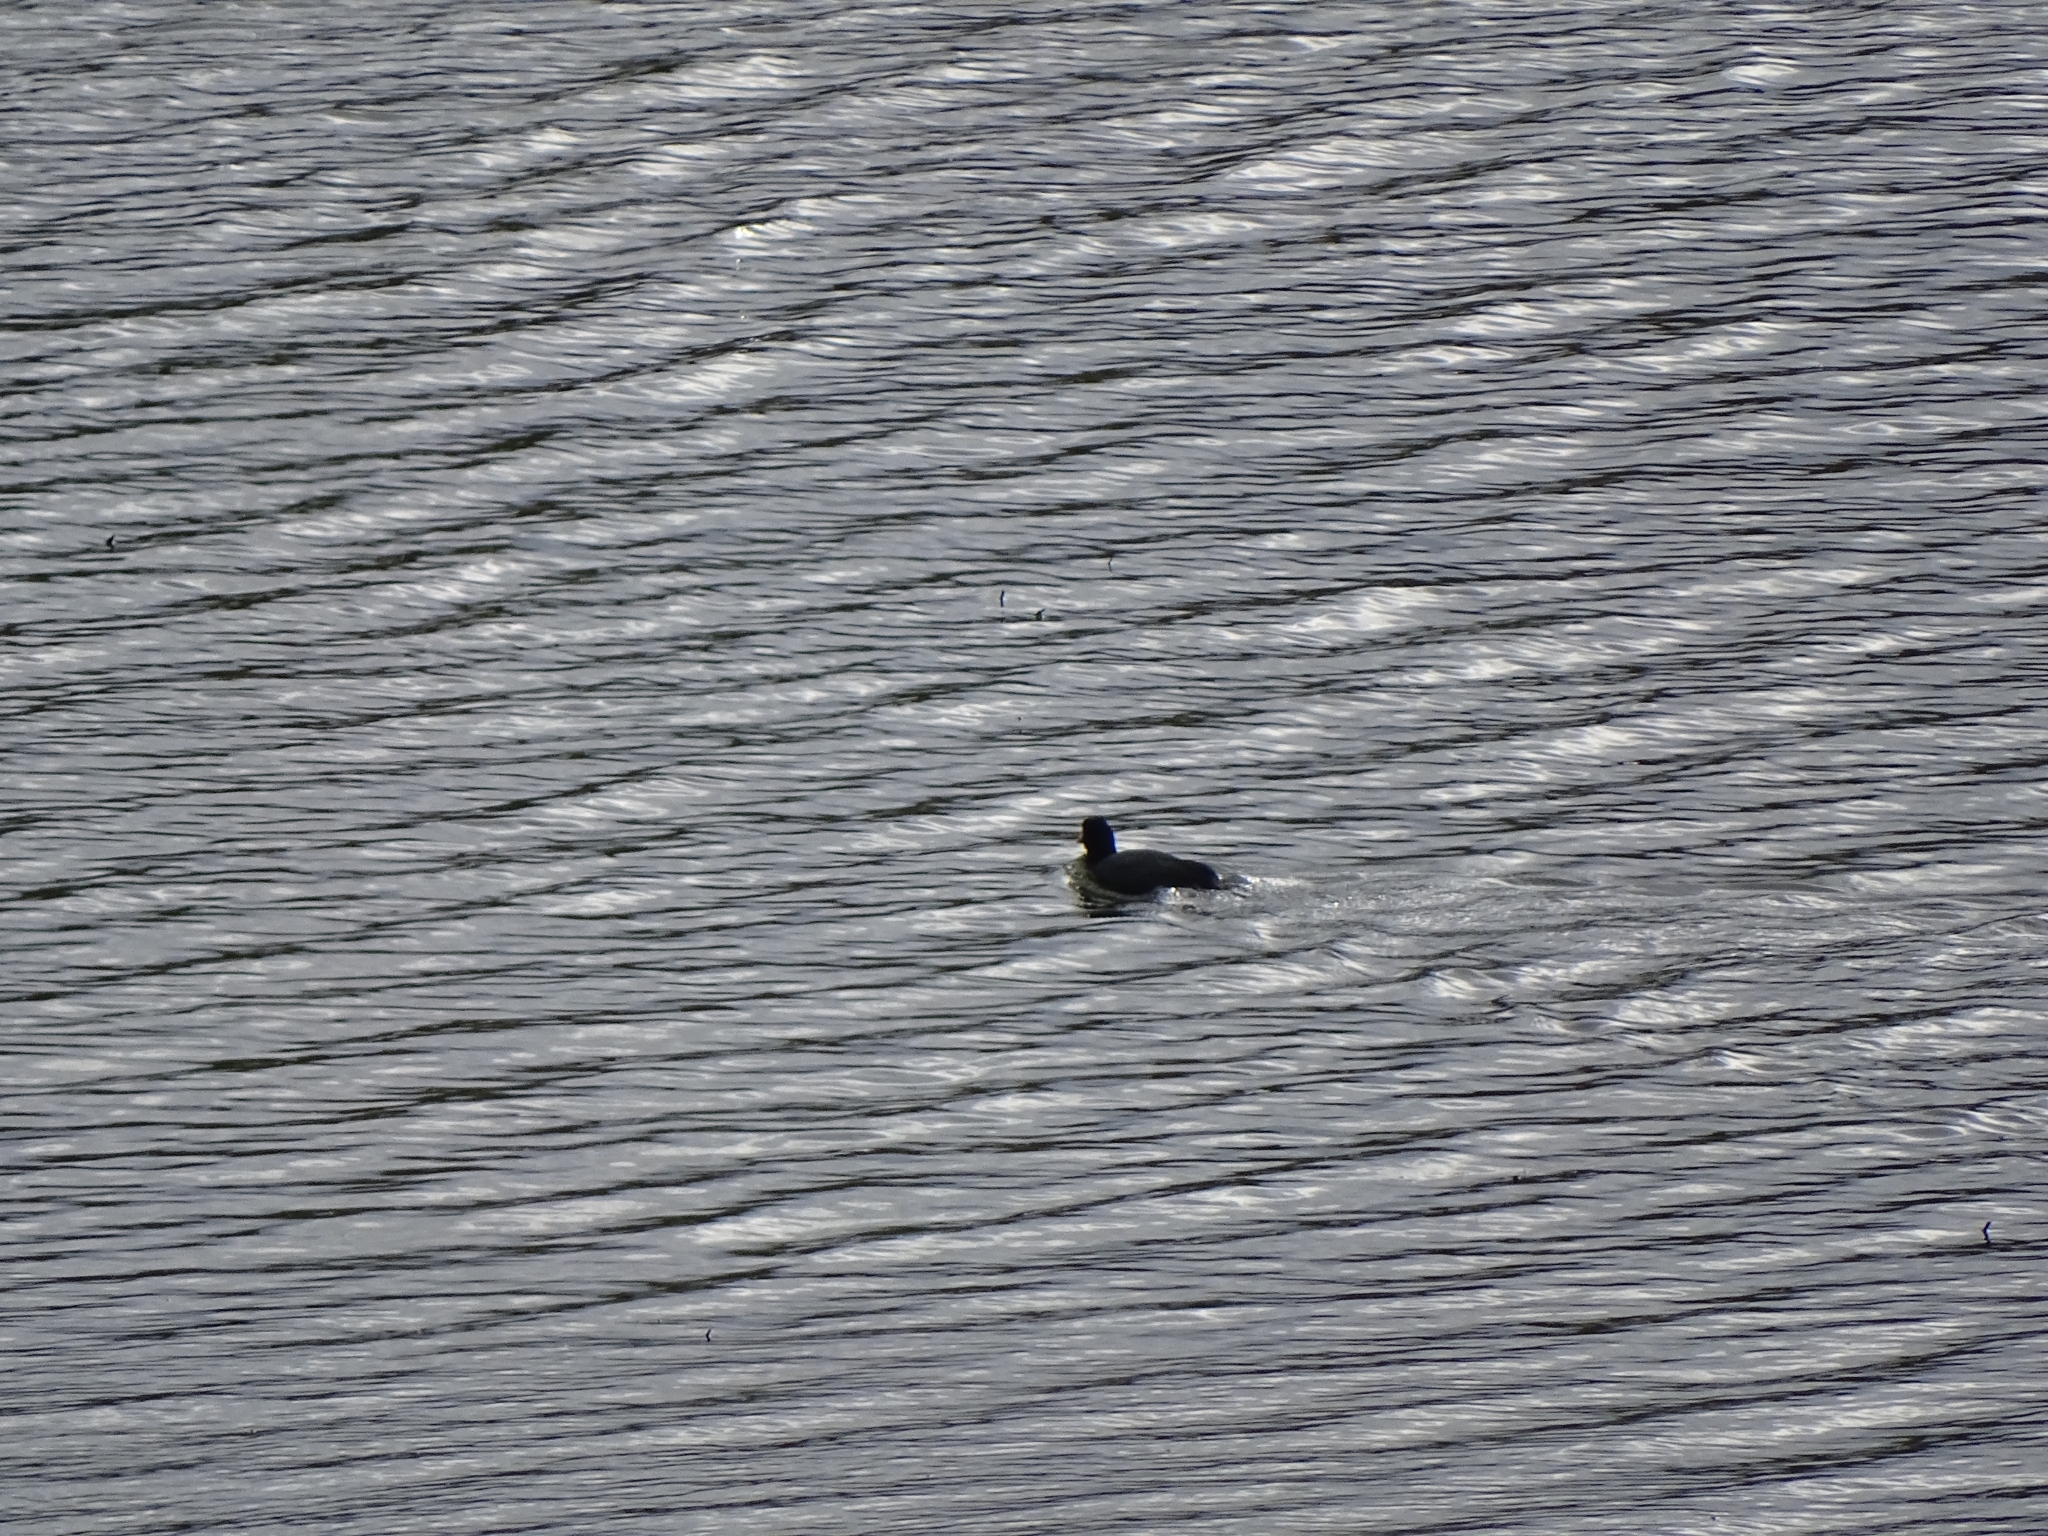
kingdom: Animalia
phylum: Chordata
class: Aves
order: Gruiformes
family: Rallidae
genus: Fulica
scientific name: Fulica atra
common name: Eurasian coot
